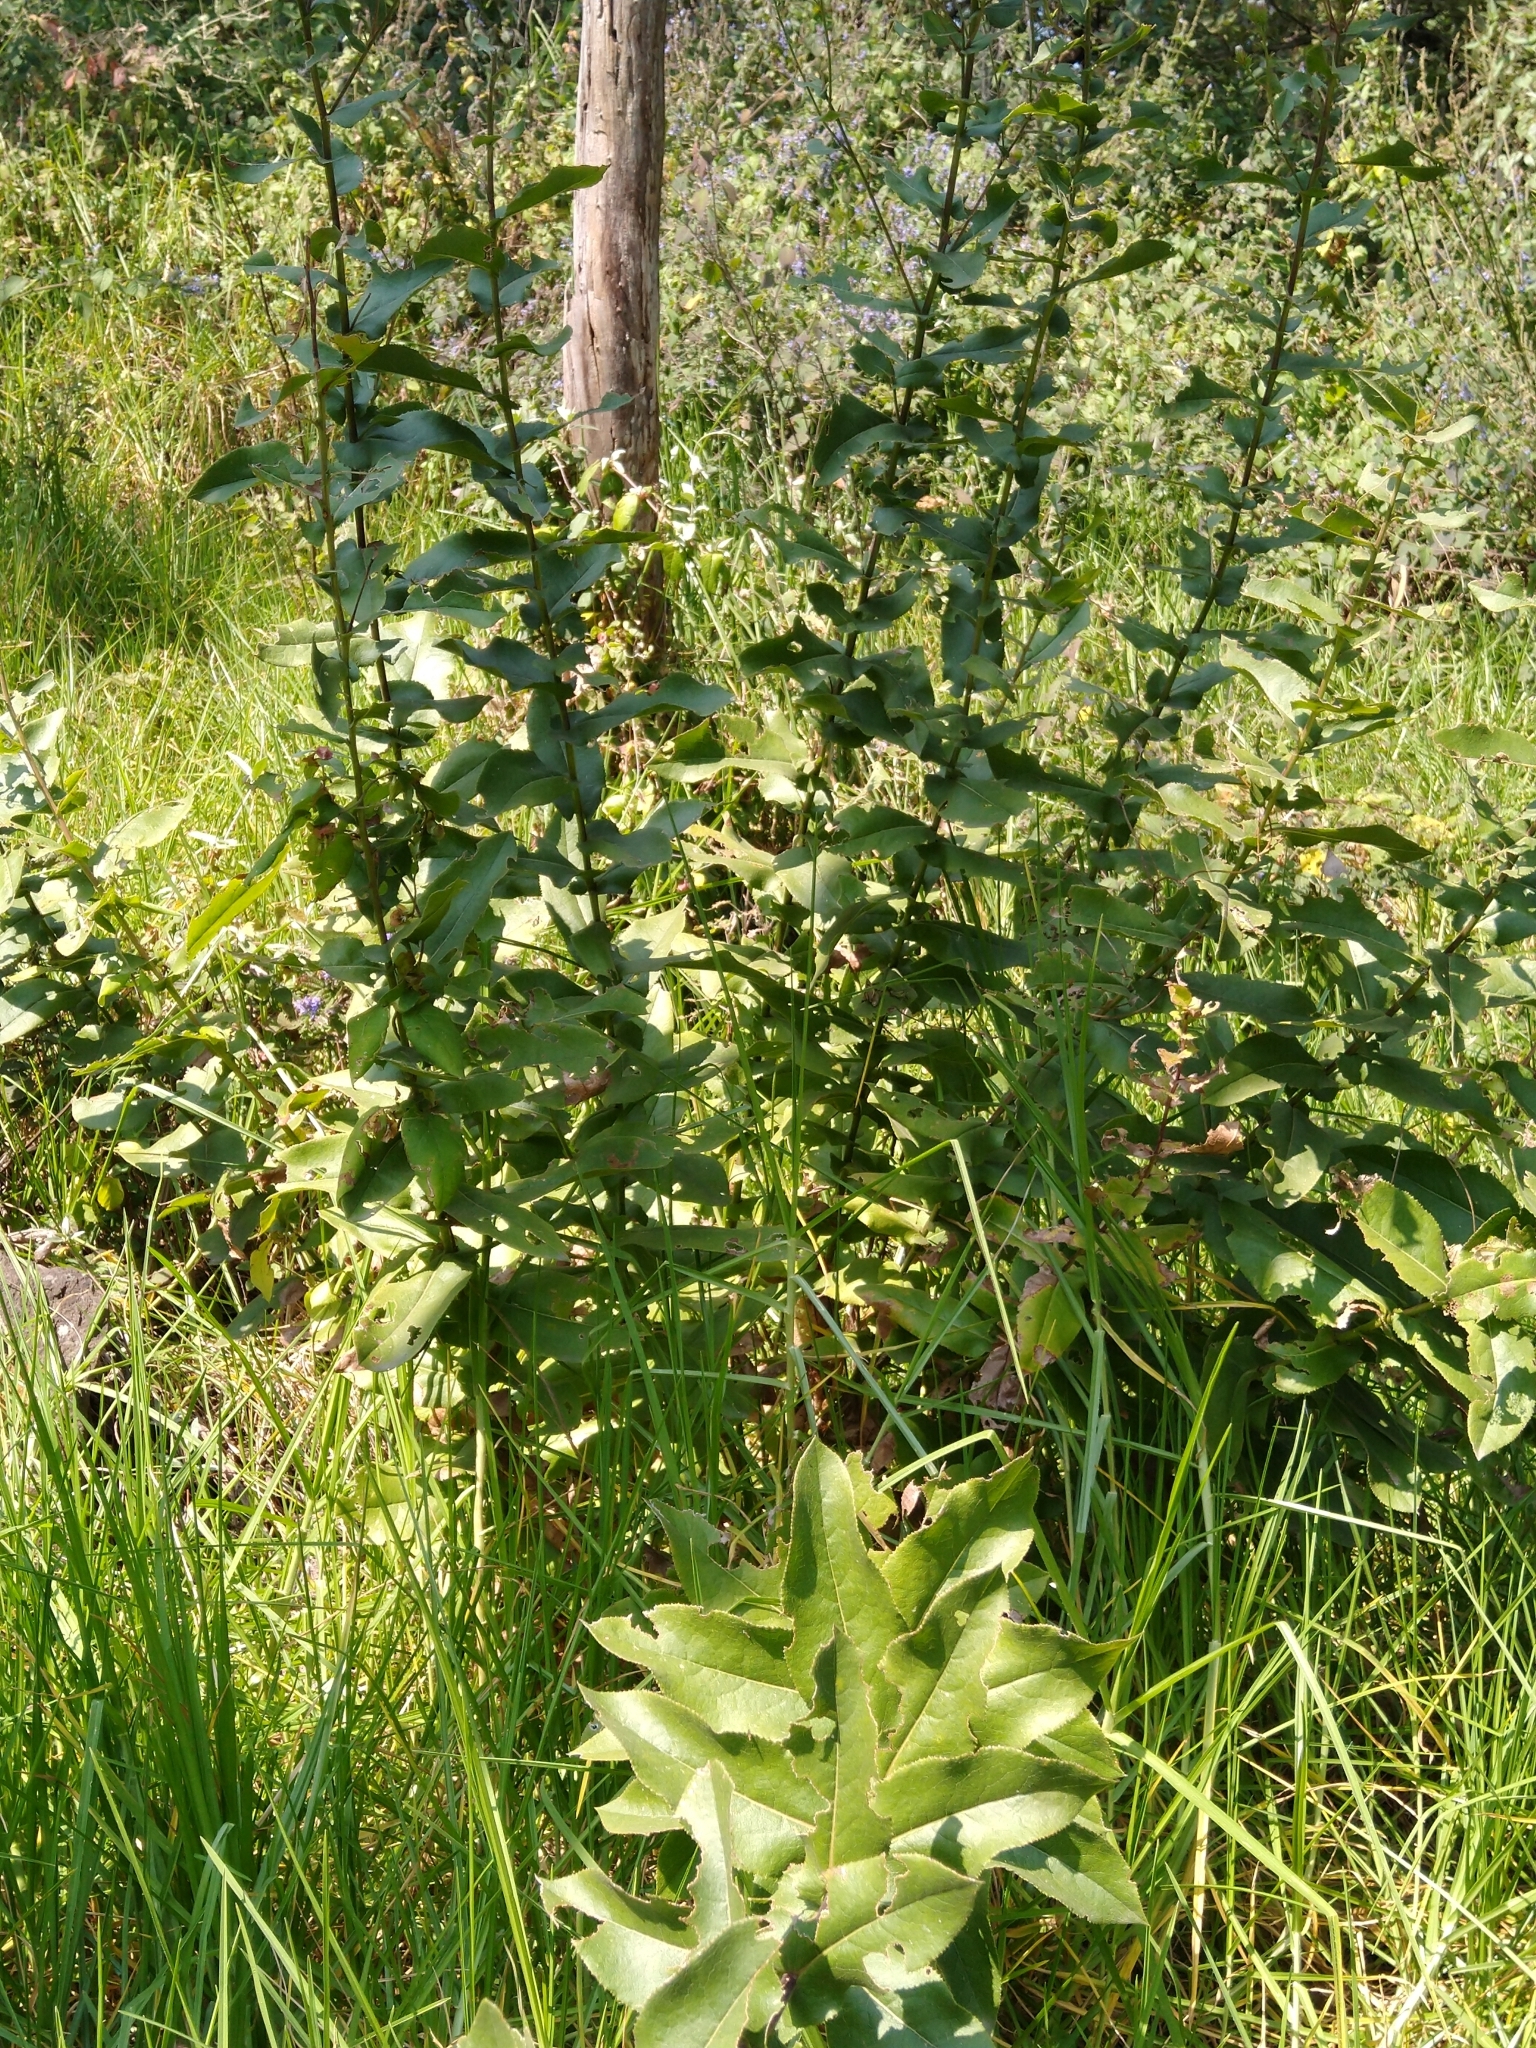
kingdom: Plantae
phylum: Tracheophyta
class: Magnoliopsida
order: Asterales
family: Asteraceae
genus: Acourtia
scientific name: Acourtia cordata
